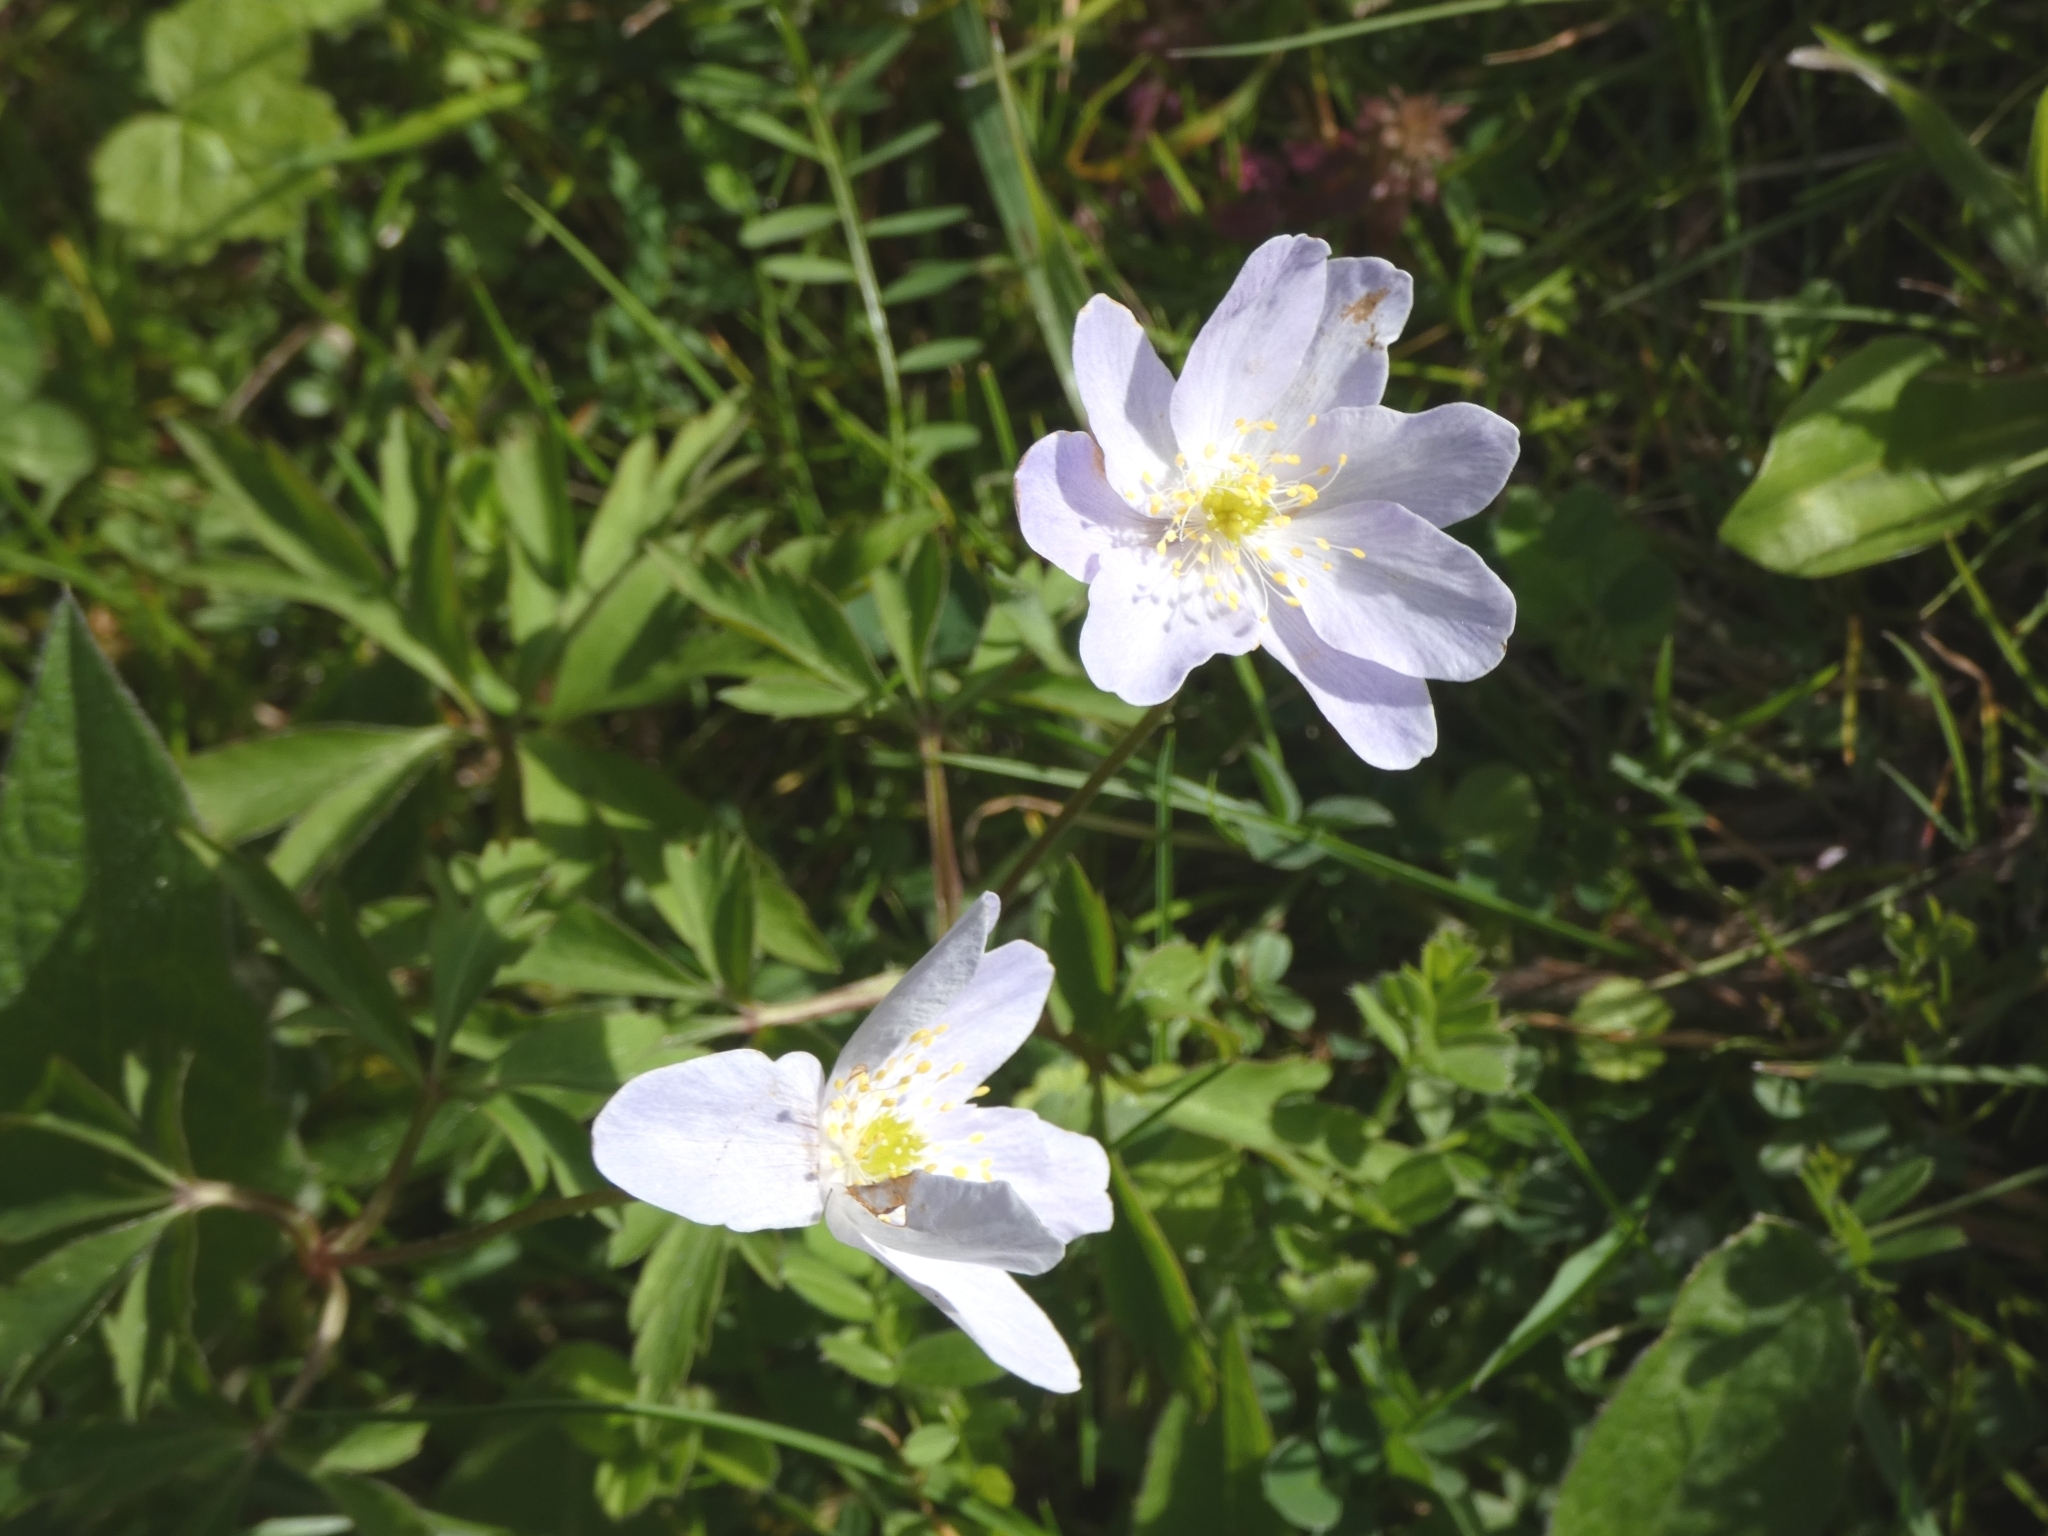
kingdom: Plantae
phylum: Tracheophyta
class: Magnoliopsida
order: Ranunculales
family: Ranunculaceae
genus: Anemone
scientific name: Anemone nemorosa
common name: Wood anemone
